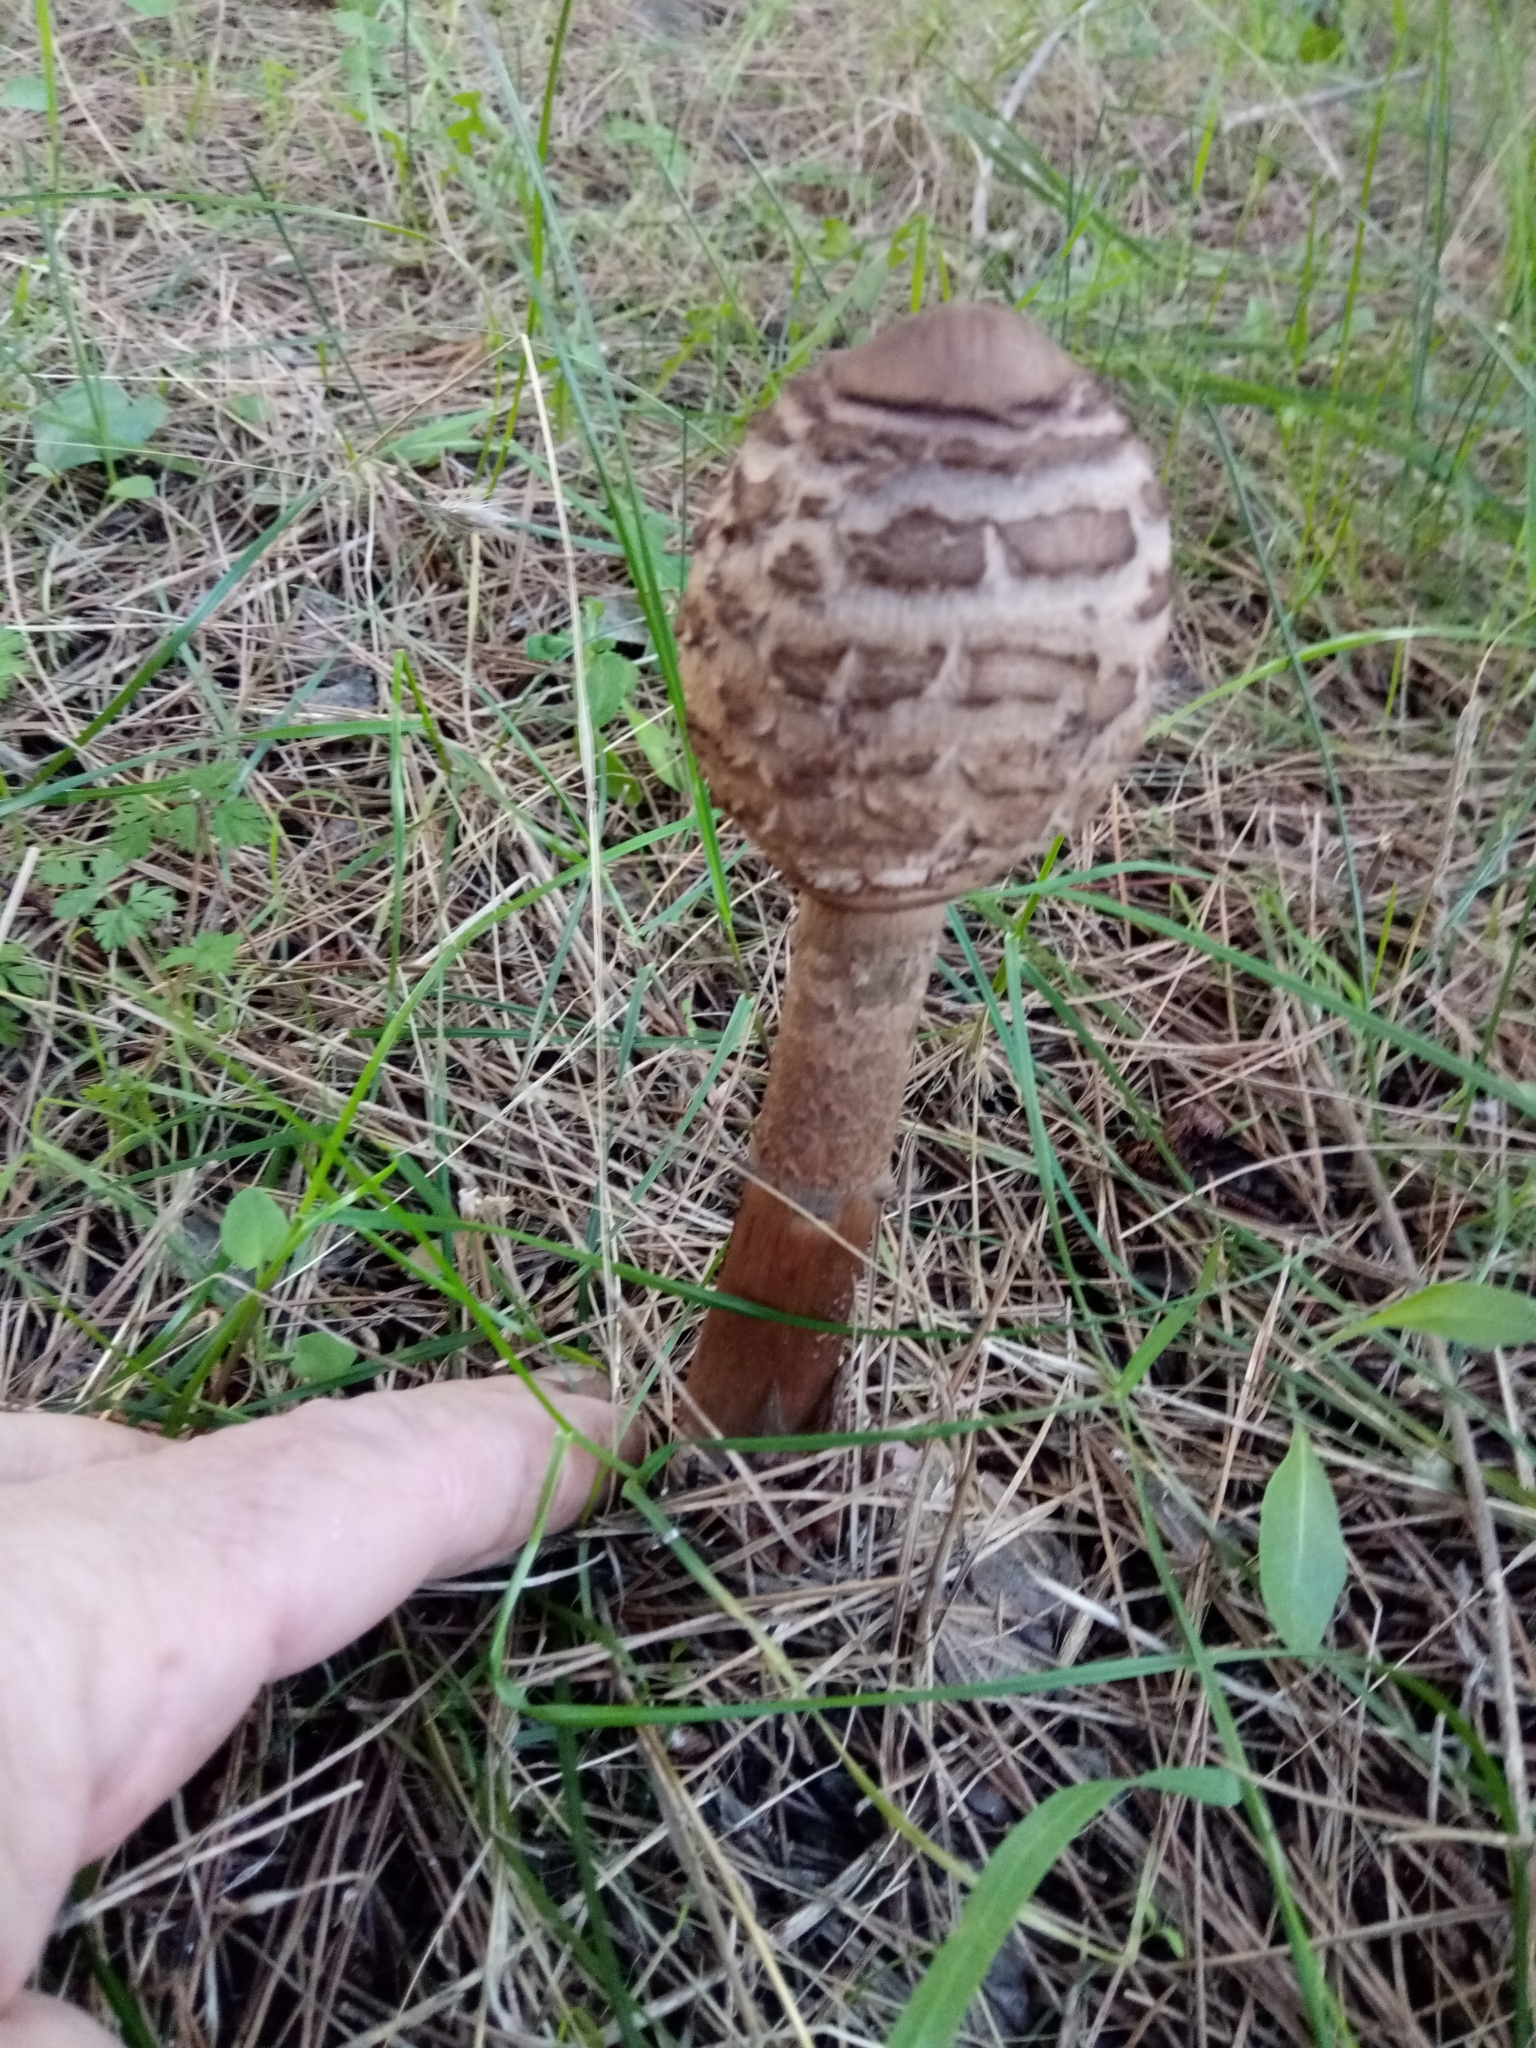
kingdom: Fungi
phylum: Basidiomycota
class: Agaricomycetes
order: Agaricales
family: Agaricaceae
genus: Macrolepiota
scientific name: Macrolepiota procera
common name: Parasol
